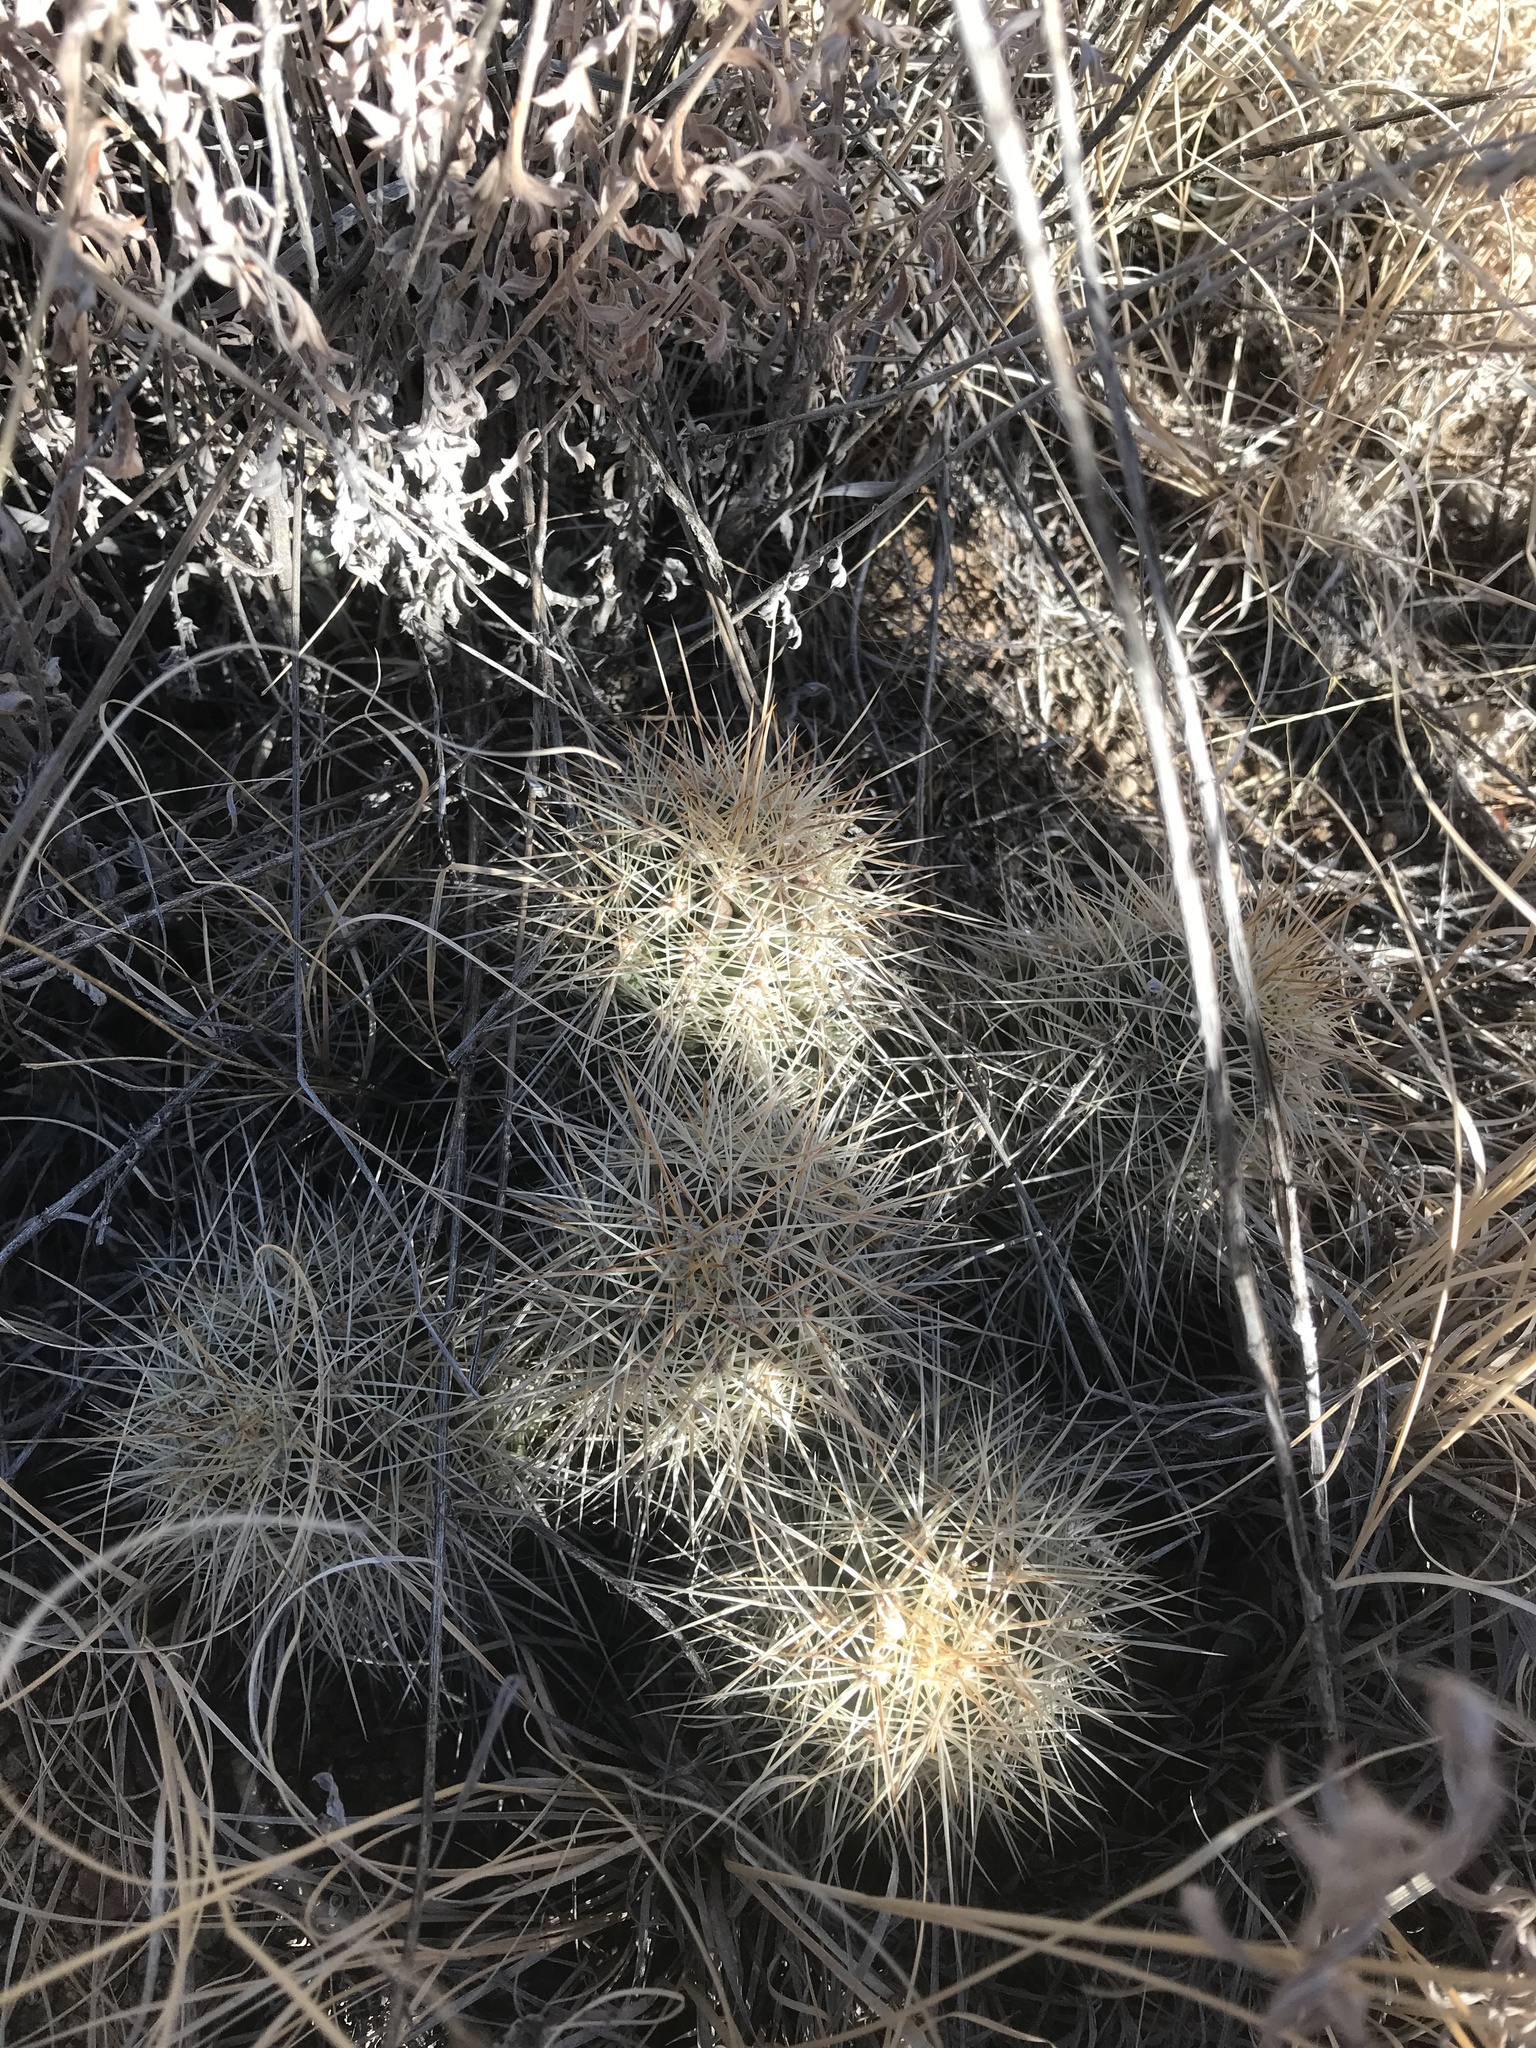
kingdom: Plantae
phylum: Tracheophyta
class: Magnoliopsida
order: Caryophyllales
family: Cactaceae
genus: Echinocereus
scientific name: Echinocereus coccineus
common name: Scarlet hedgehog cactus
